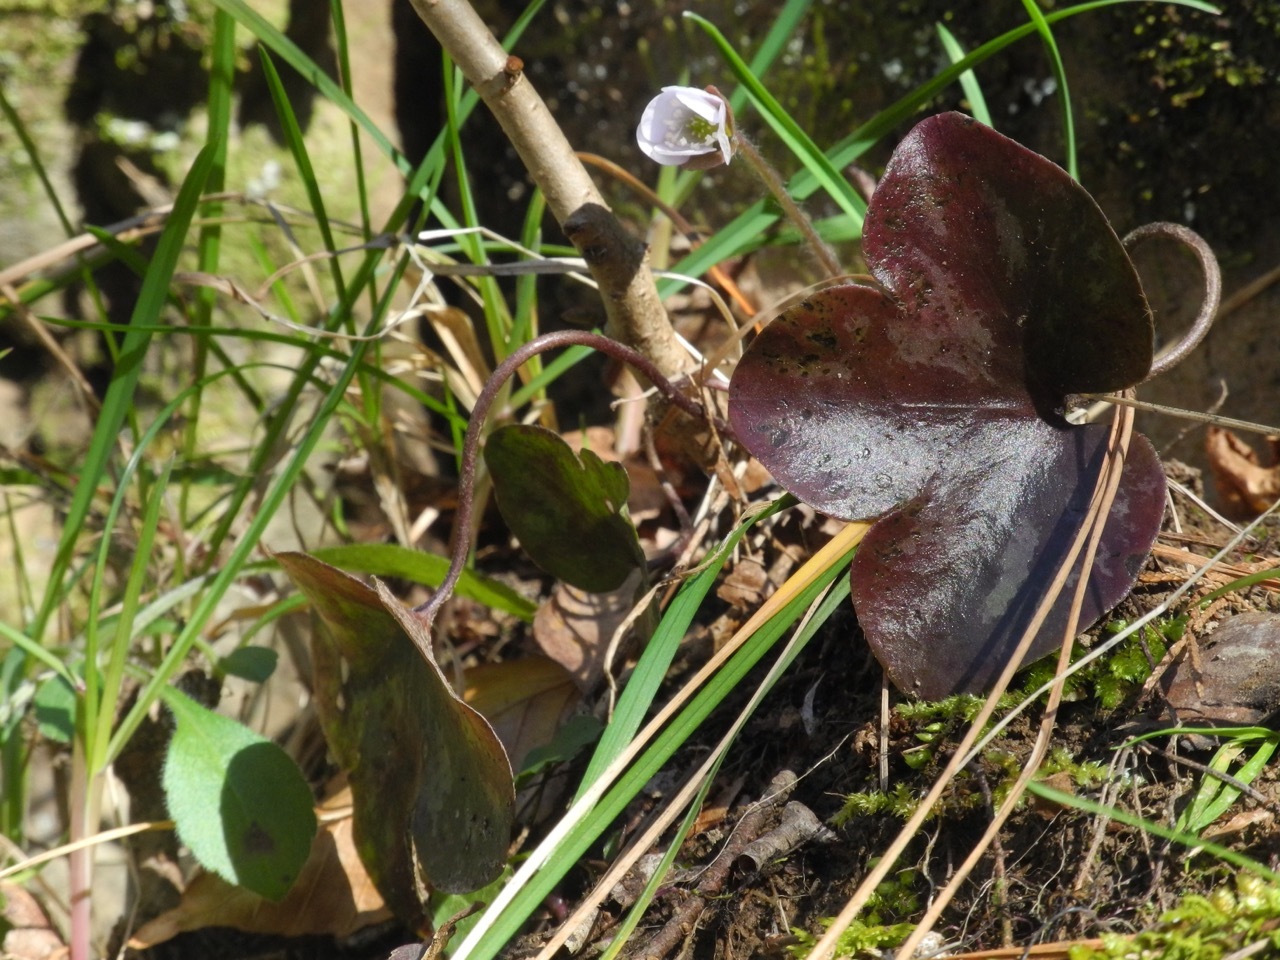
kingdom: Plantae
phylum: Tracheophyta
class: Magnoliopsida
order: Ranunculales
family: Ranunculaceae
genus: Hepatica
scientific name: Hepatica americana
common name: American hepatica
